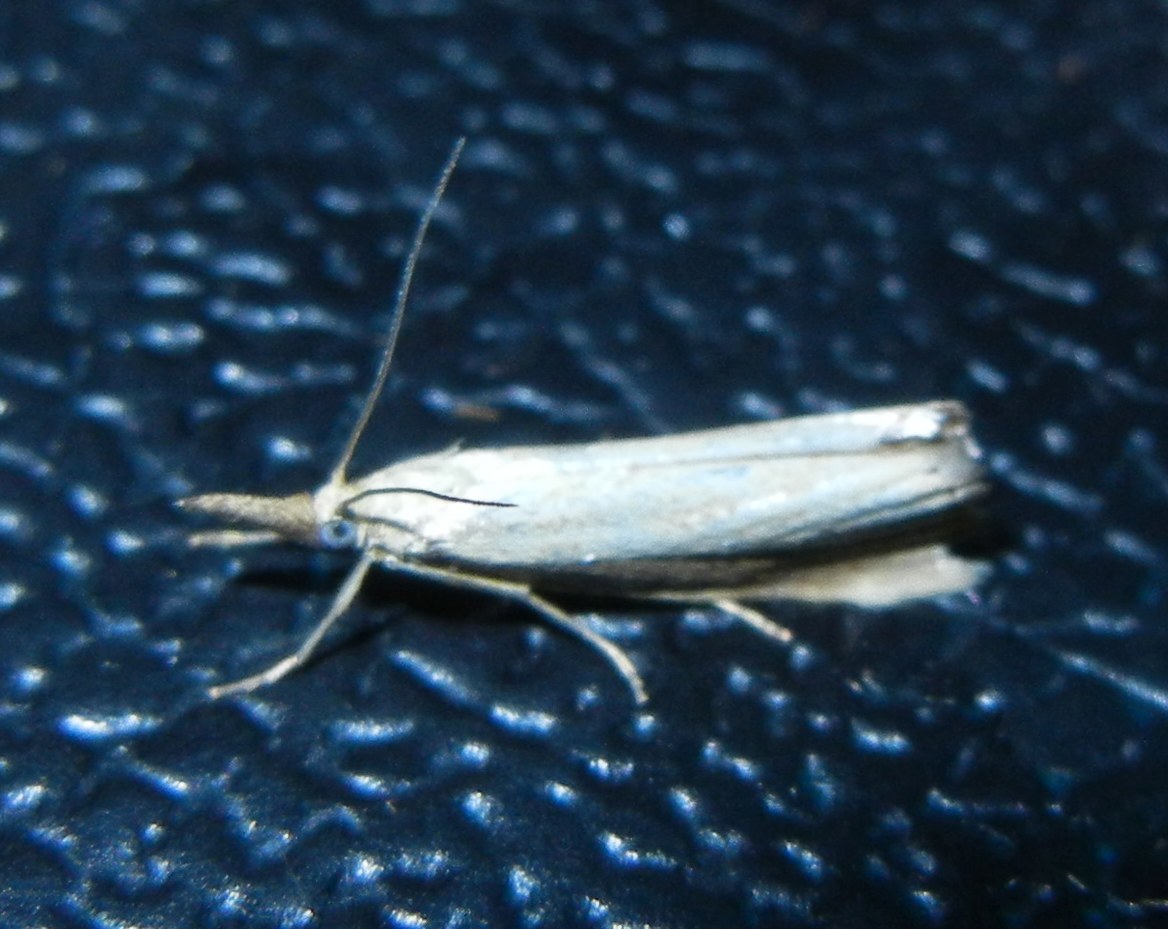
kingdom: Animalia
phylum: Arthropoda
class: Insecta
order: Lepidoptera
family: Crambidae
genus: Agriphila
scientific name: Agriphila straminella
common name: Straw grass-veneer
